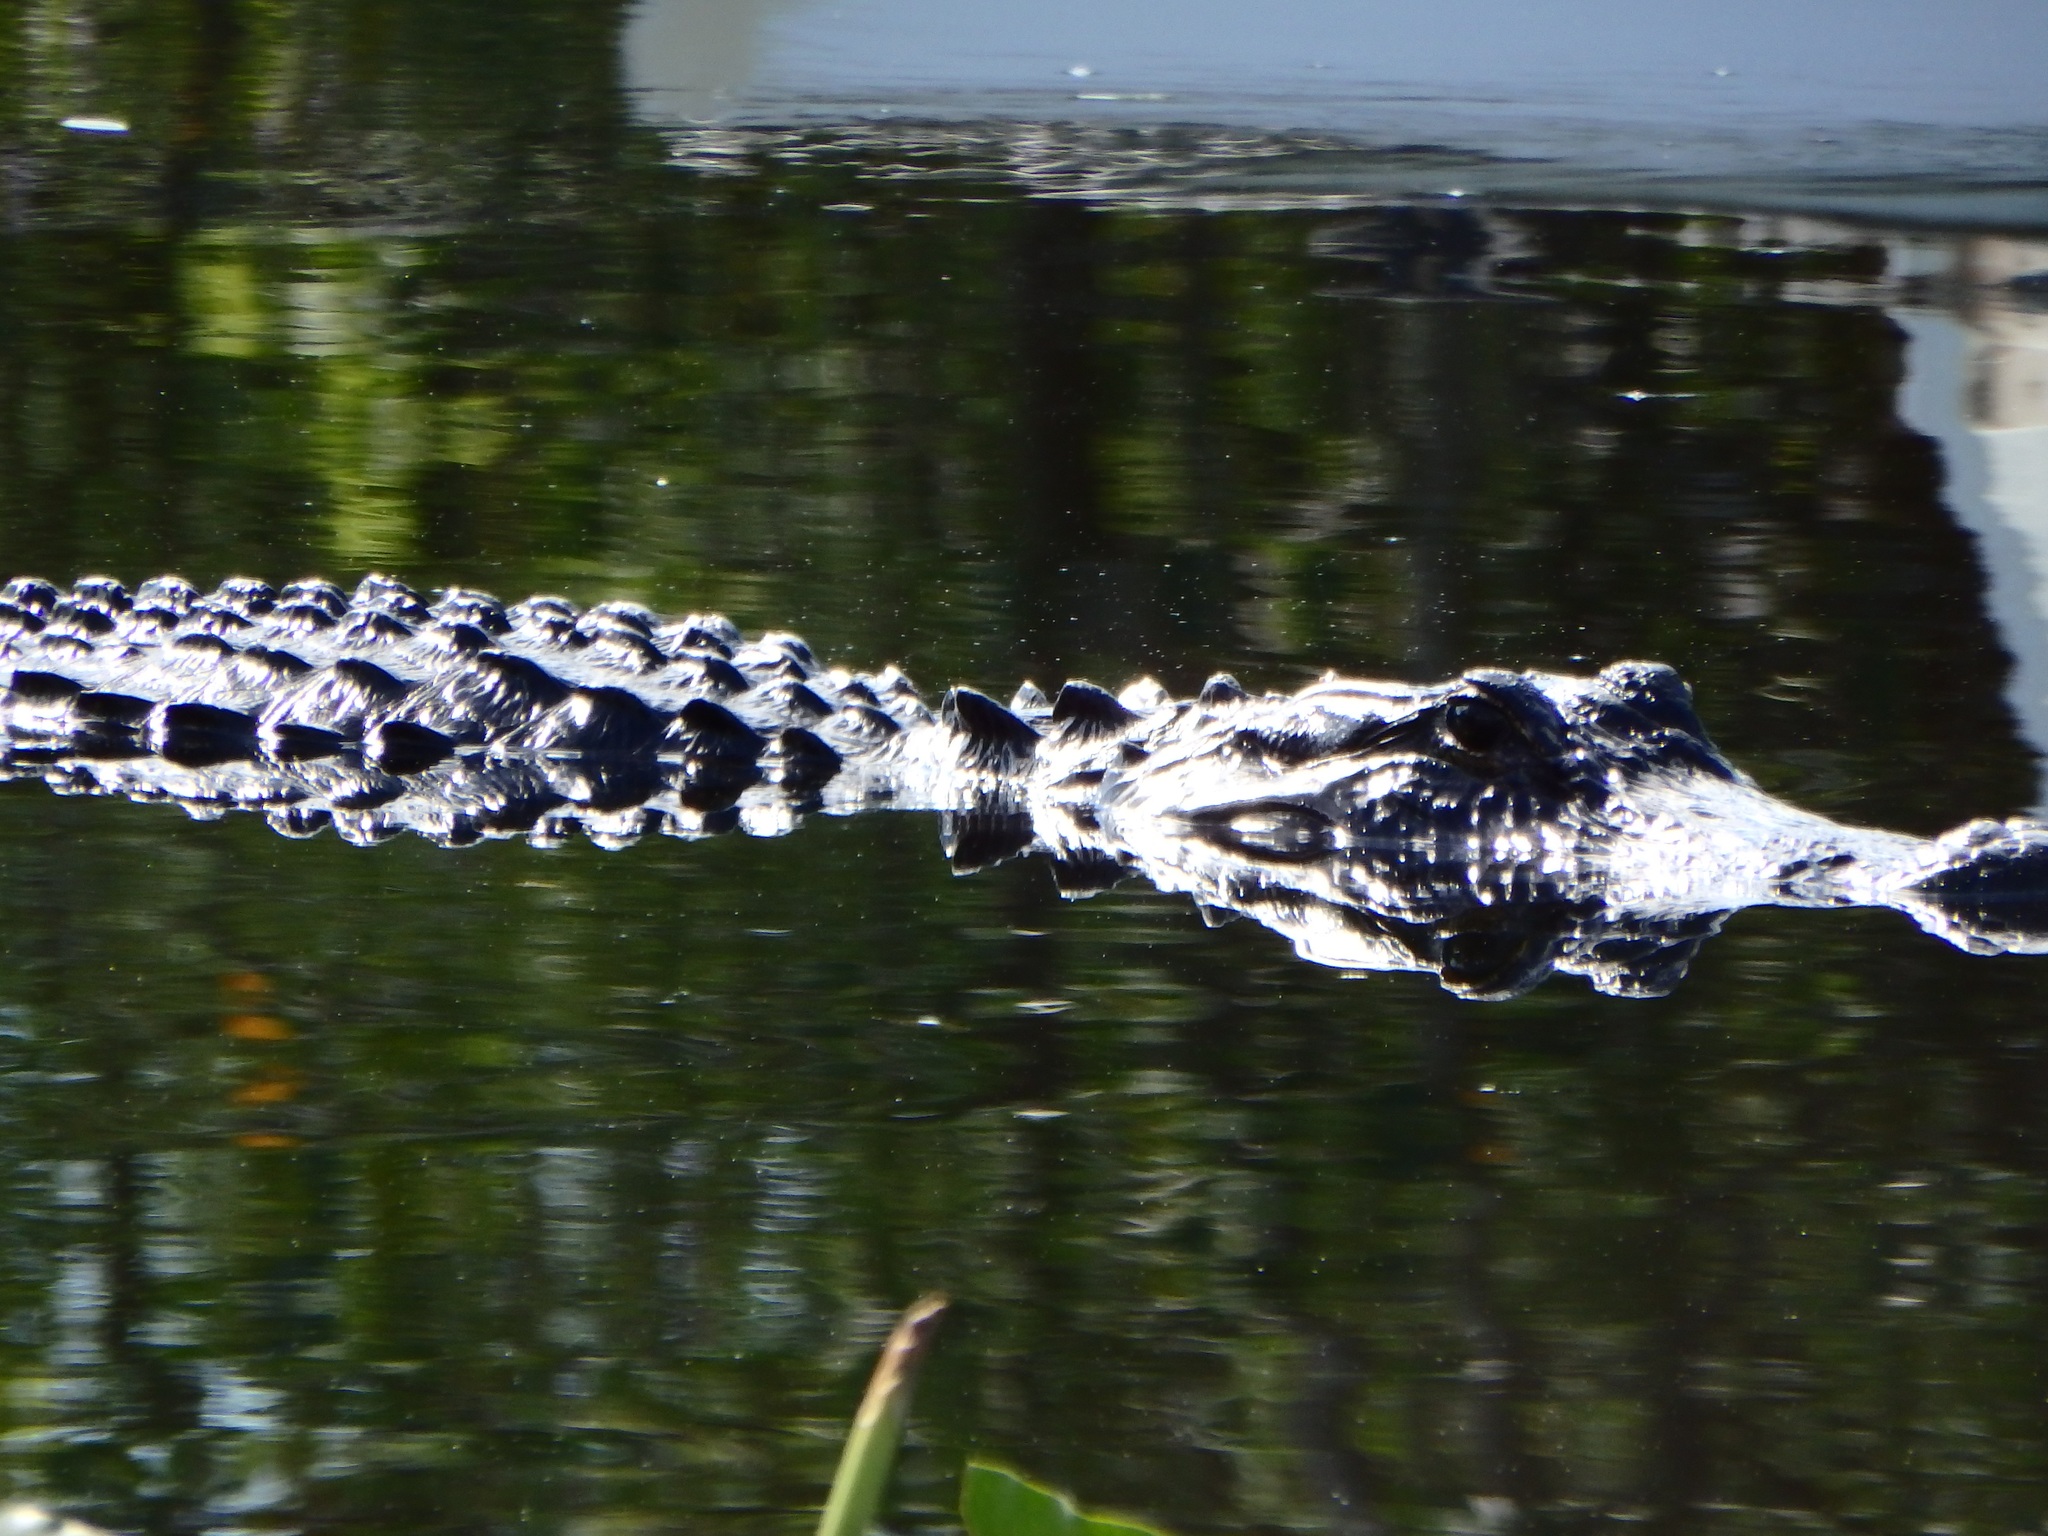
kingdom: Animalia
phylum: Chordata
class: Crocodylia
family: Alligatoridae
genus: Alligator
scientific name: Alligator mississippiensis
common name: American alligator
